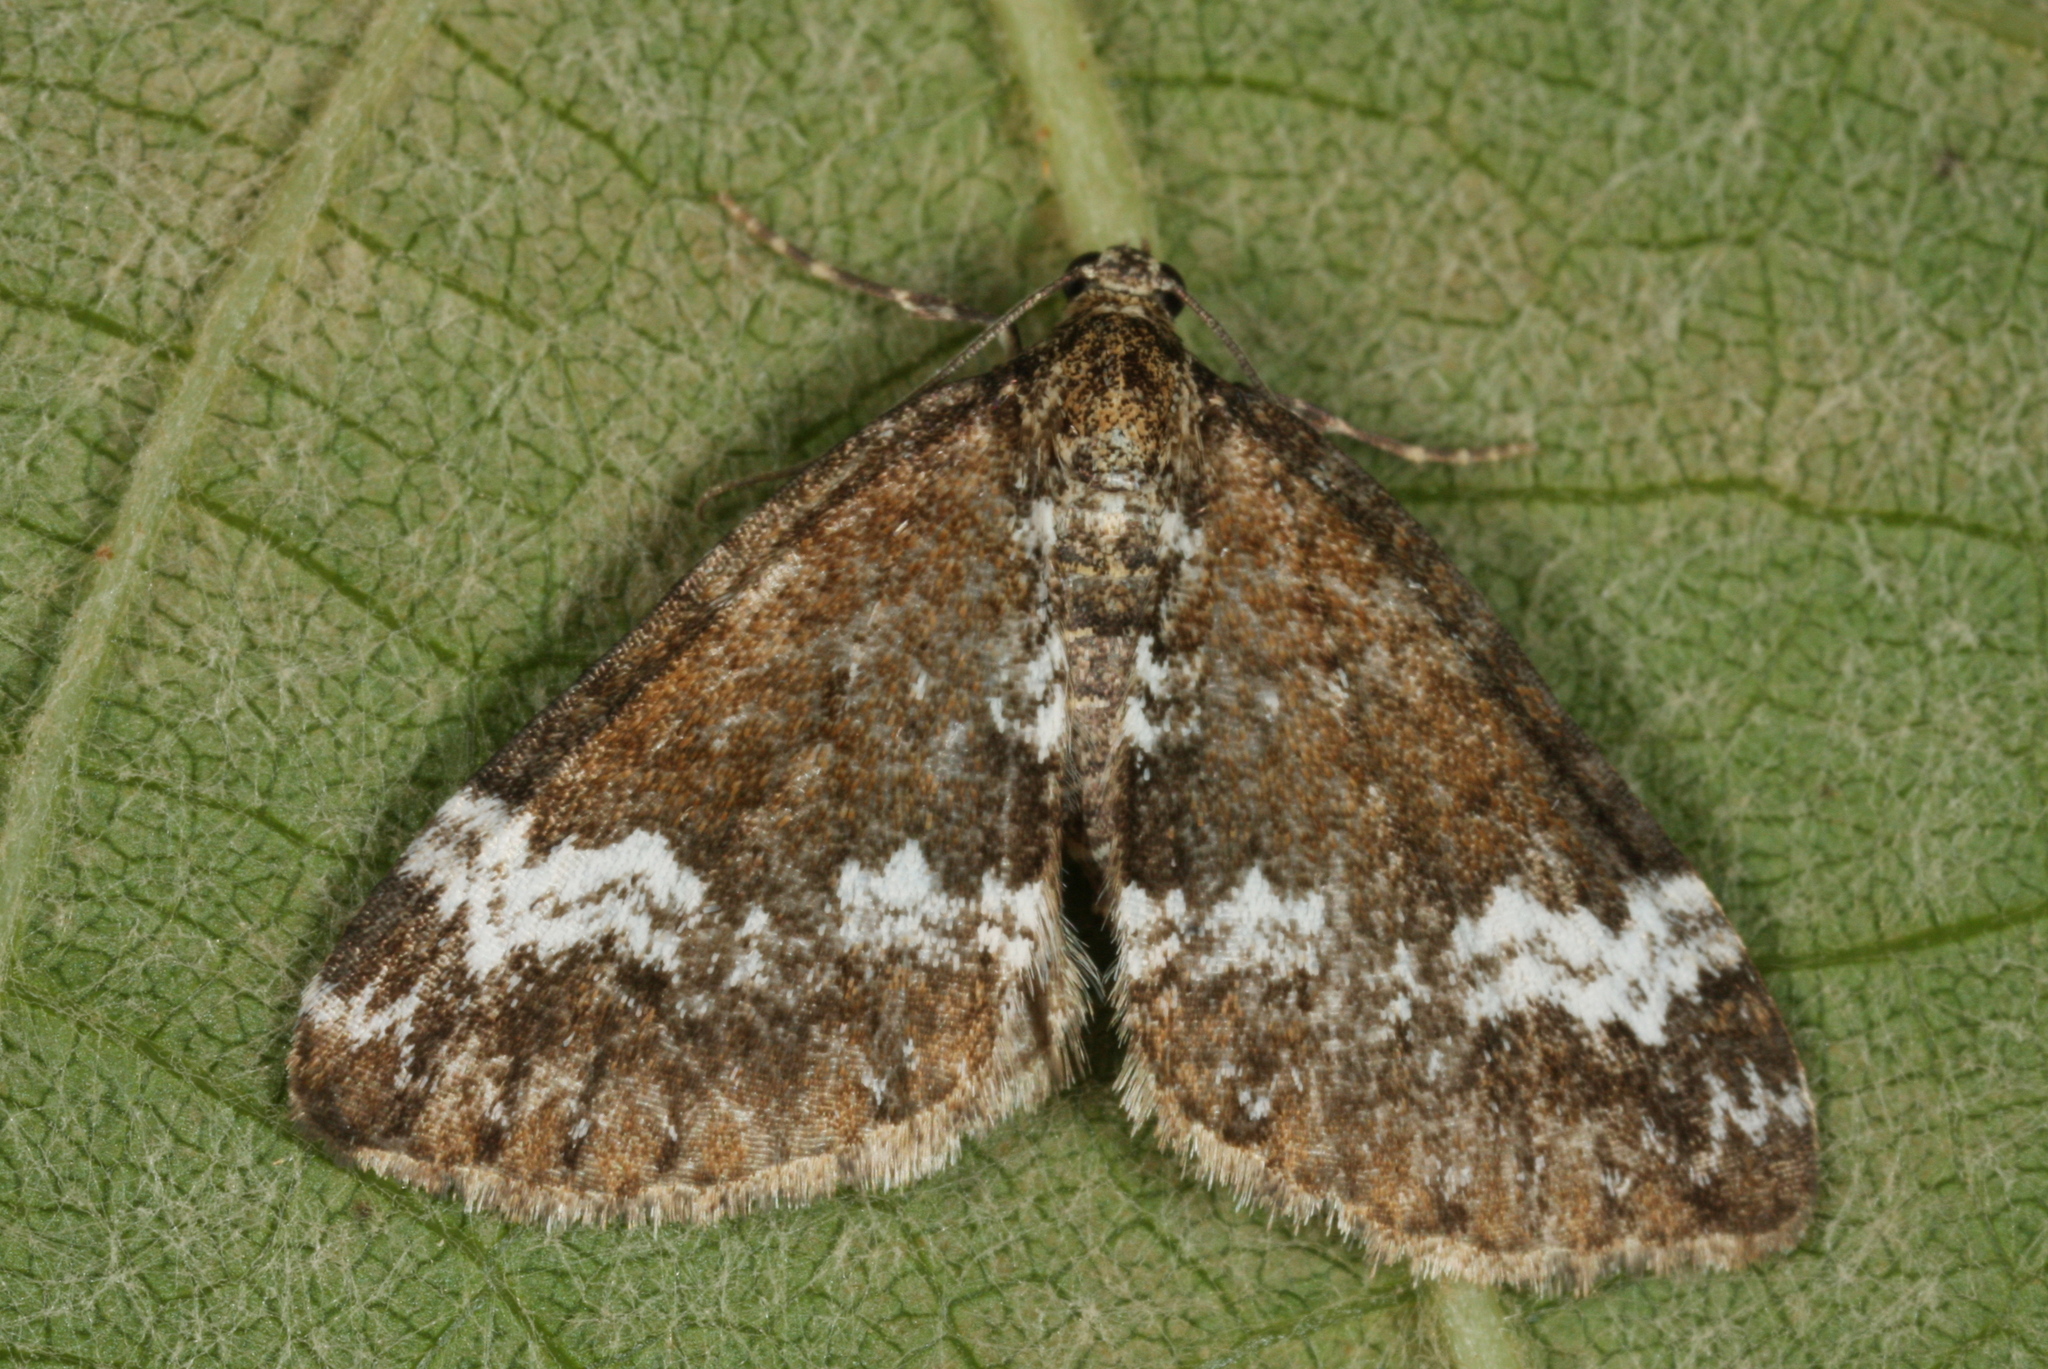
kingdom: Animalia
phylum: Arthropoda
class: Insecta
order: Lepidoptera
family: Geometridae
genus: Perizoma
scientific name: Perizoma alchemillata
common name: Small rivulet
